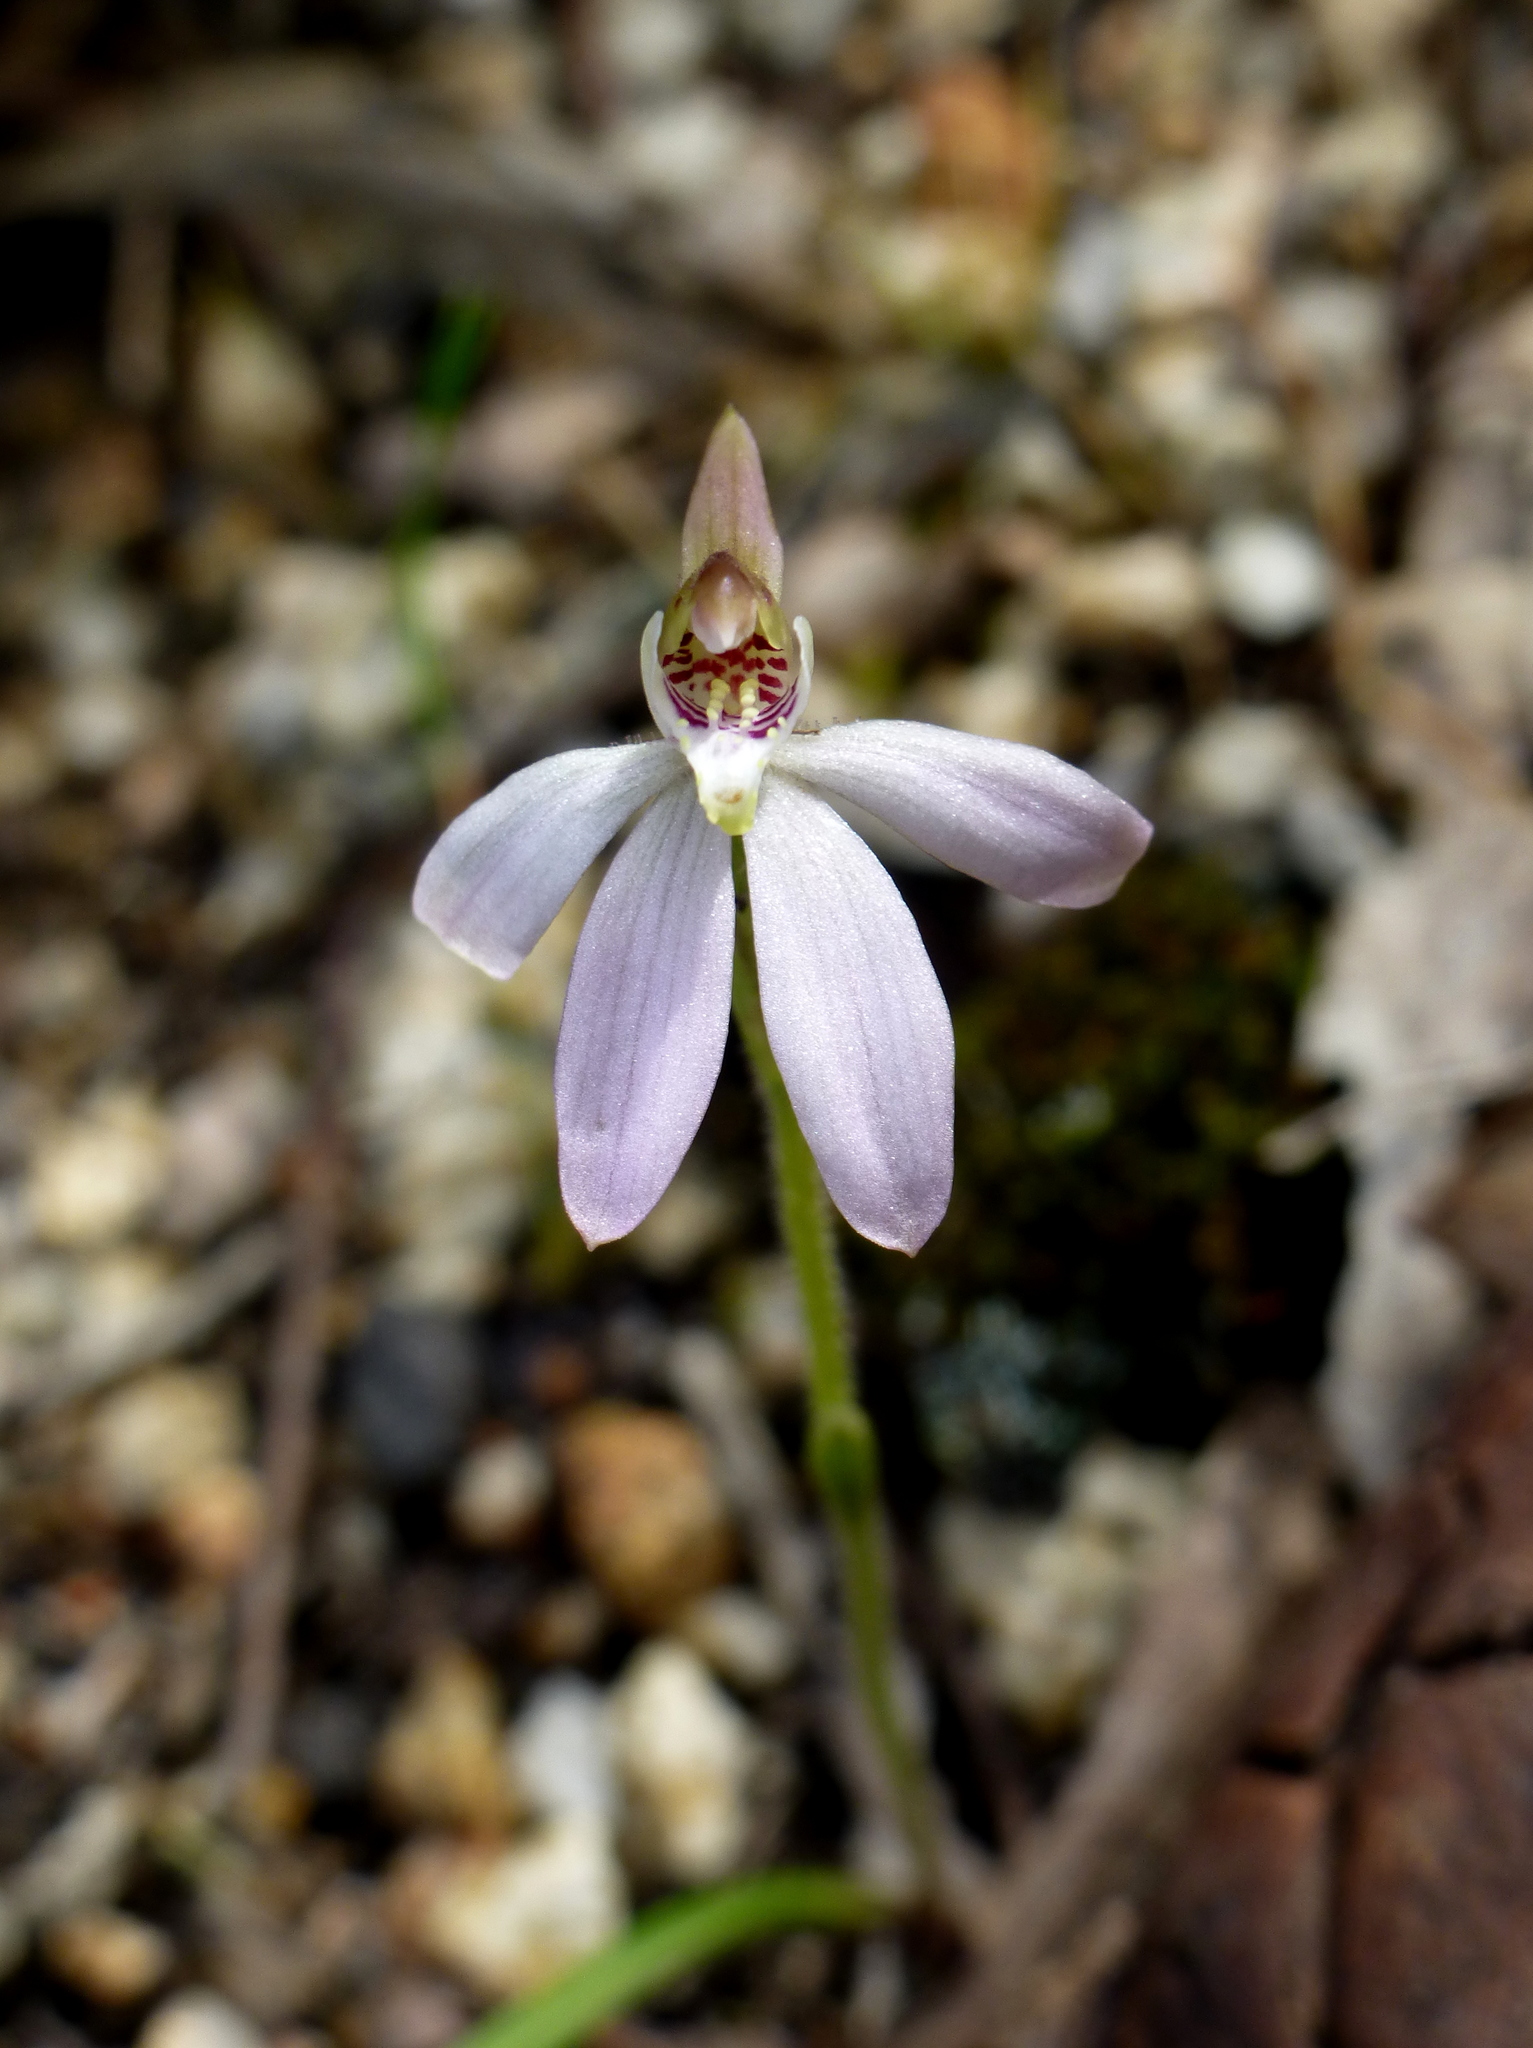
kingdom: Plantae
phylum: Tracheophyta
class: Liliopsida
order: Asparagales
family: Orchidaceae
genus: Caladenia
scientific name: Caladenia fuscata
